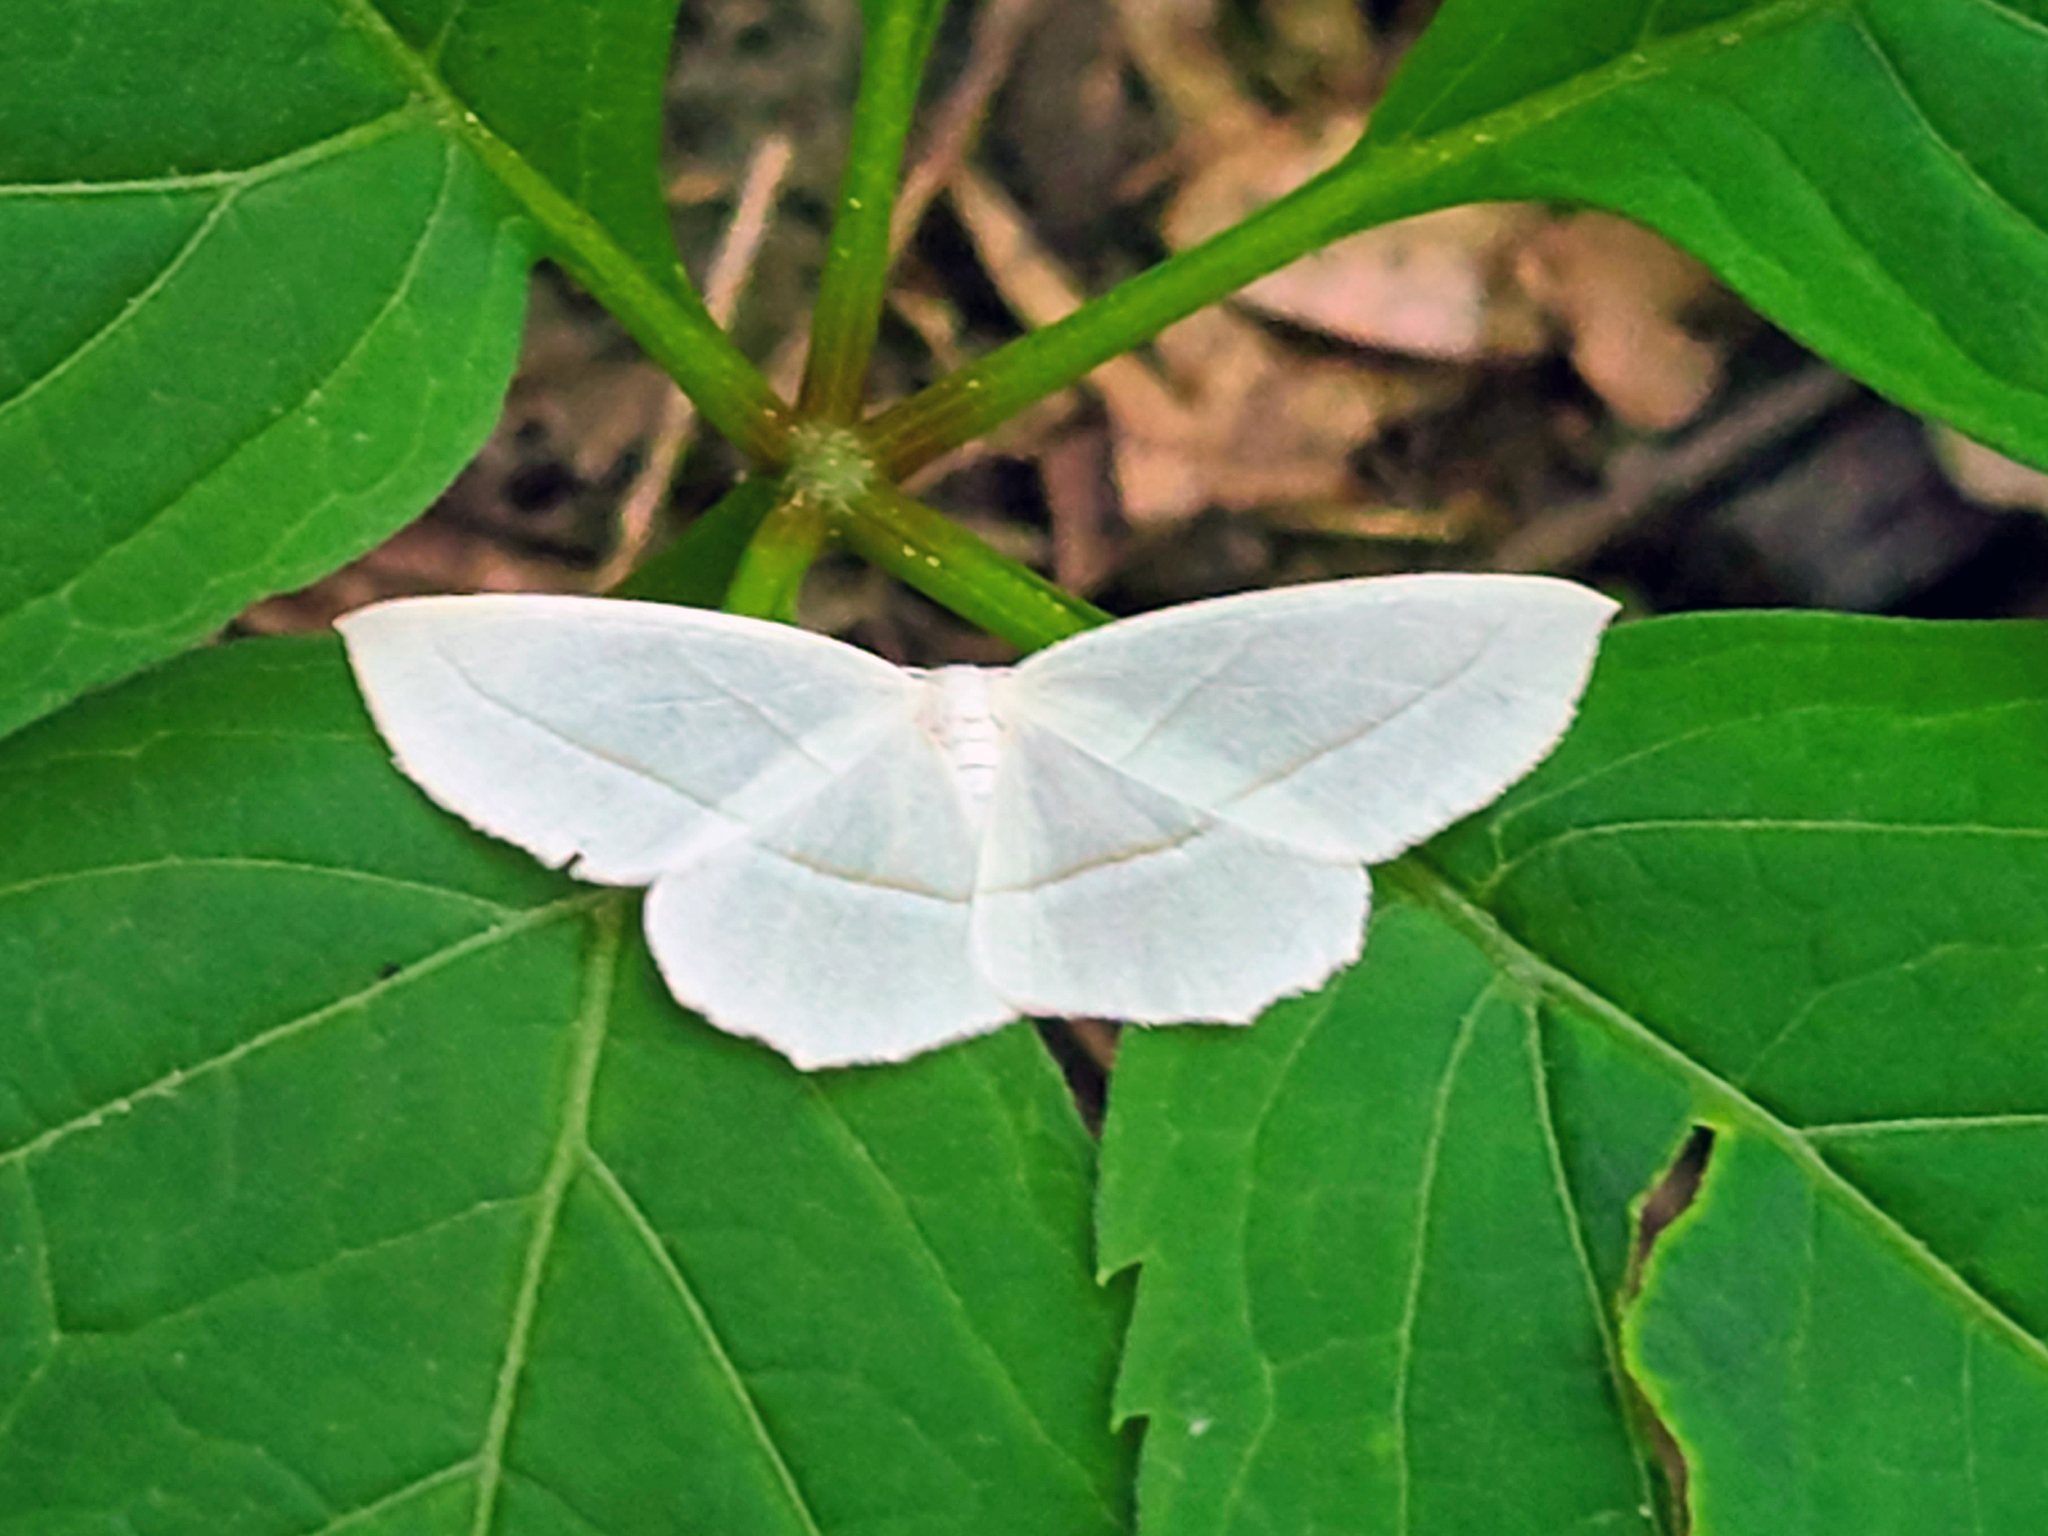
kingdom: Animalia
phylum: Arthropoda
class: Insecta
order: Lepidoptera
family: Geometridae
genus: Campaea
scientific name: Campaea perlata
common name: Fringed looper
